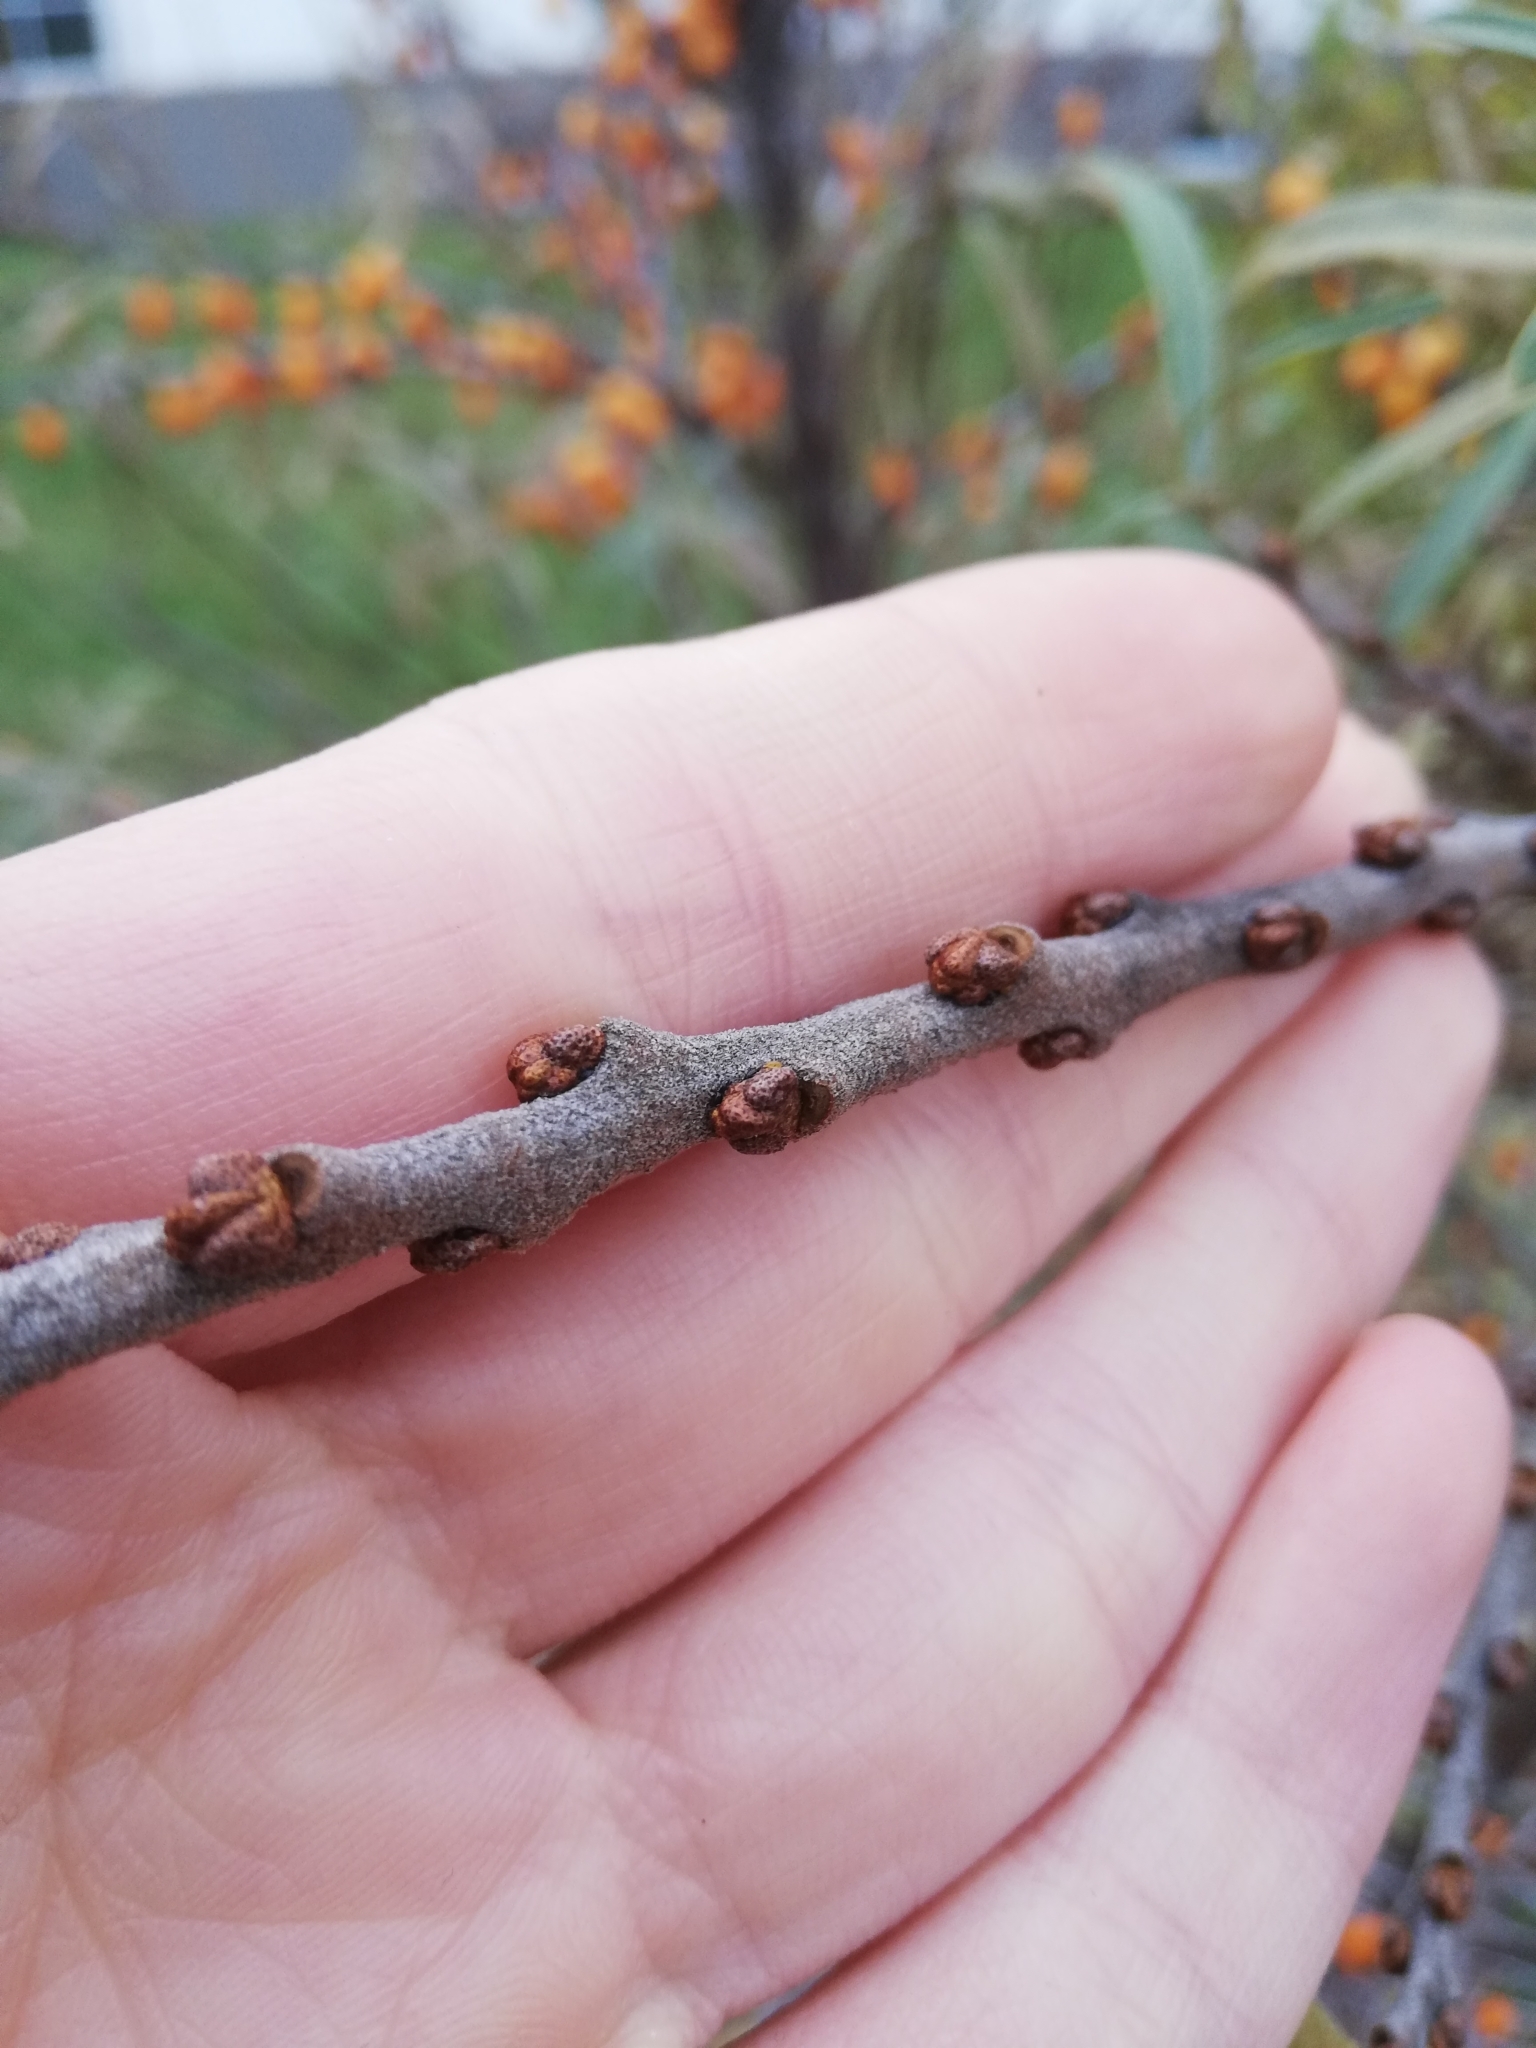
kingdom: Plantae
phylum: Tracheophyta
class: Magnoliopsida
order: Rosales
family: Elaeagnaceae
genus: Hippophae
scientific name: Hippophae rhamnoides
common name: Sea-buckthorn
